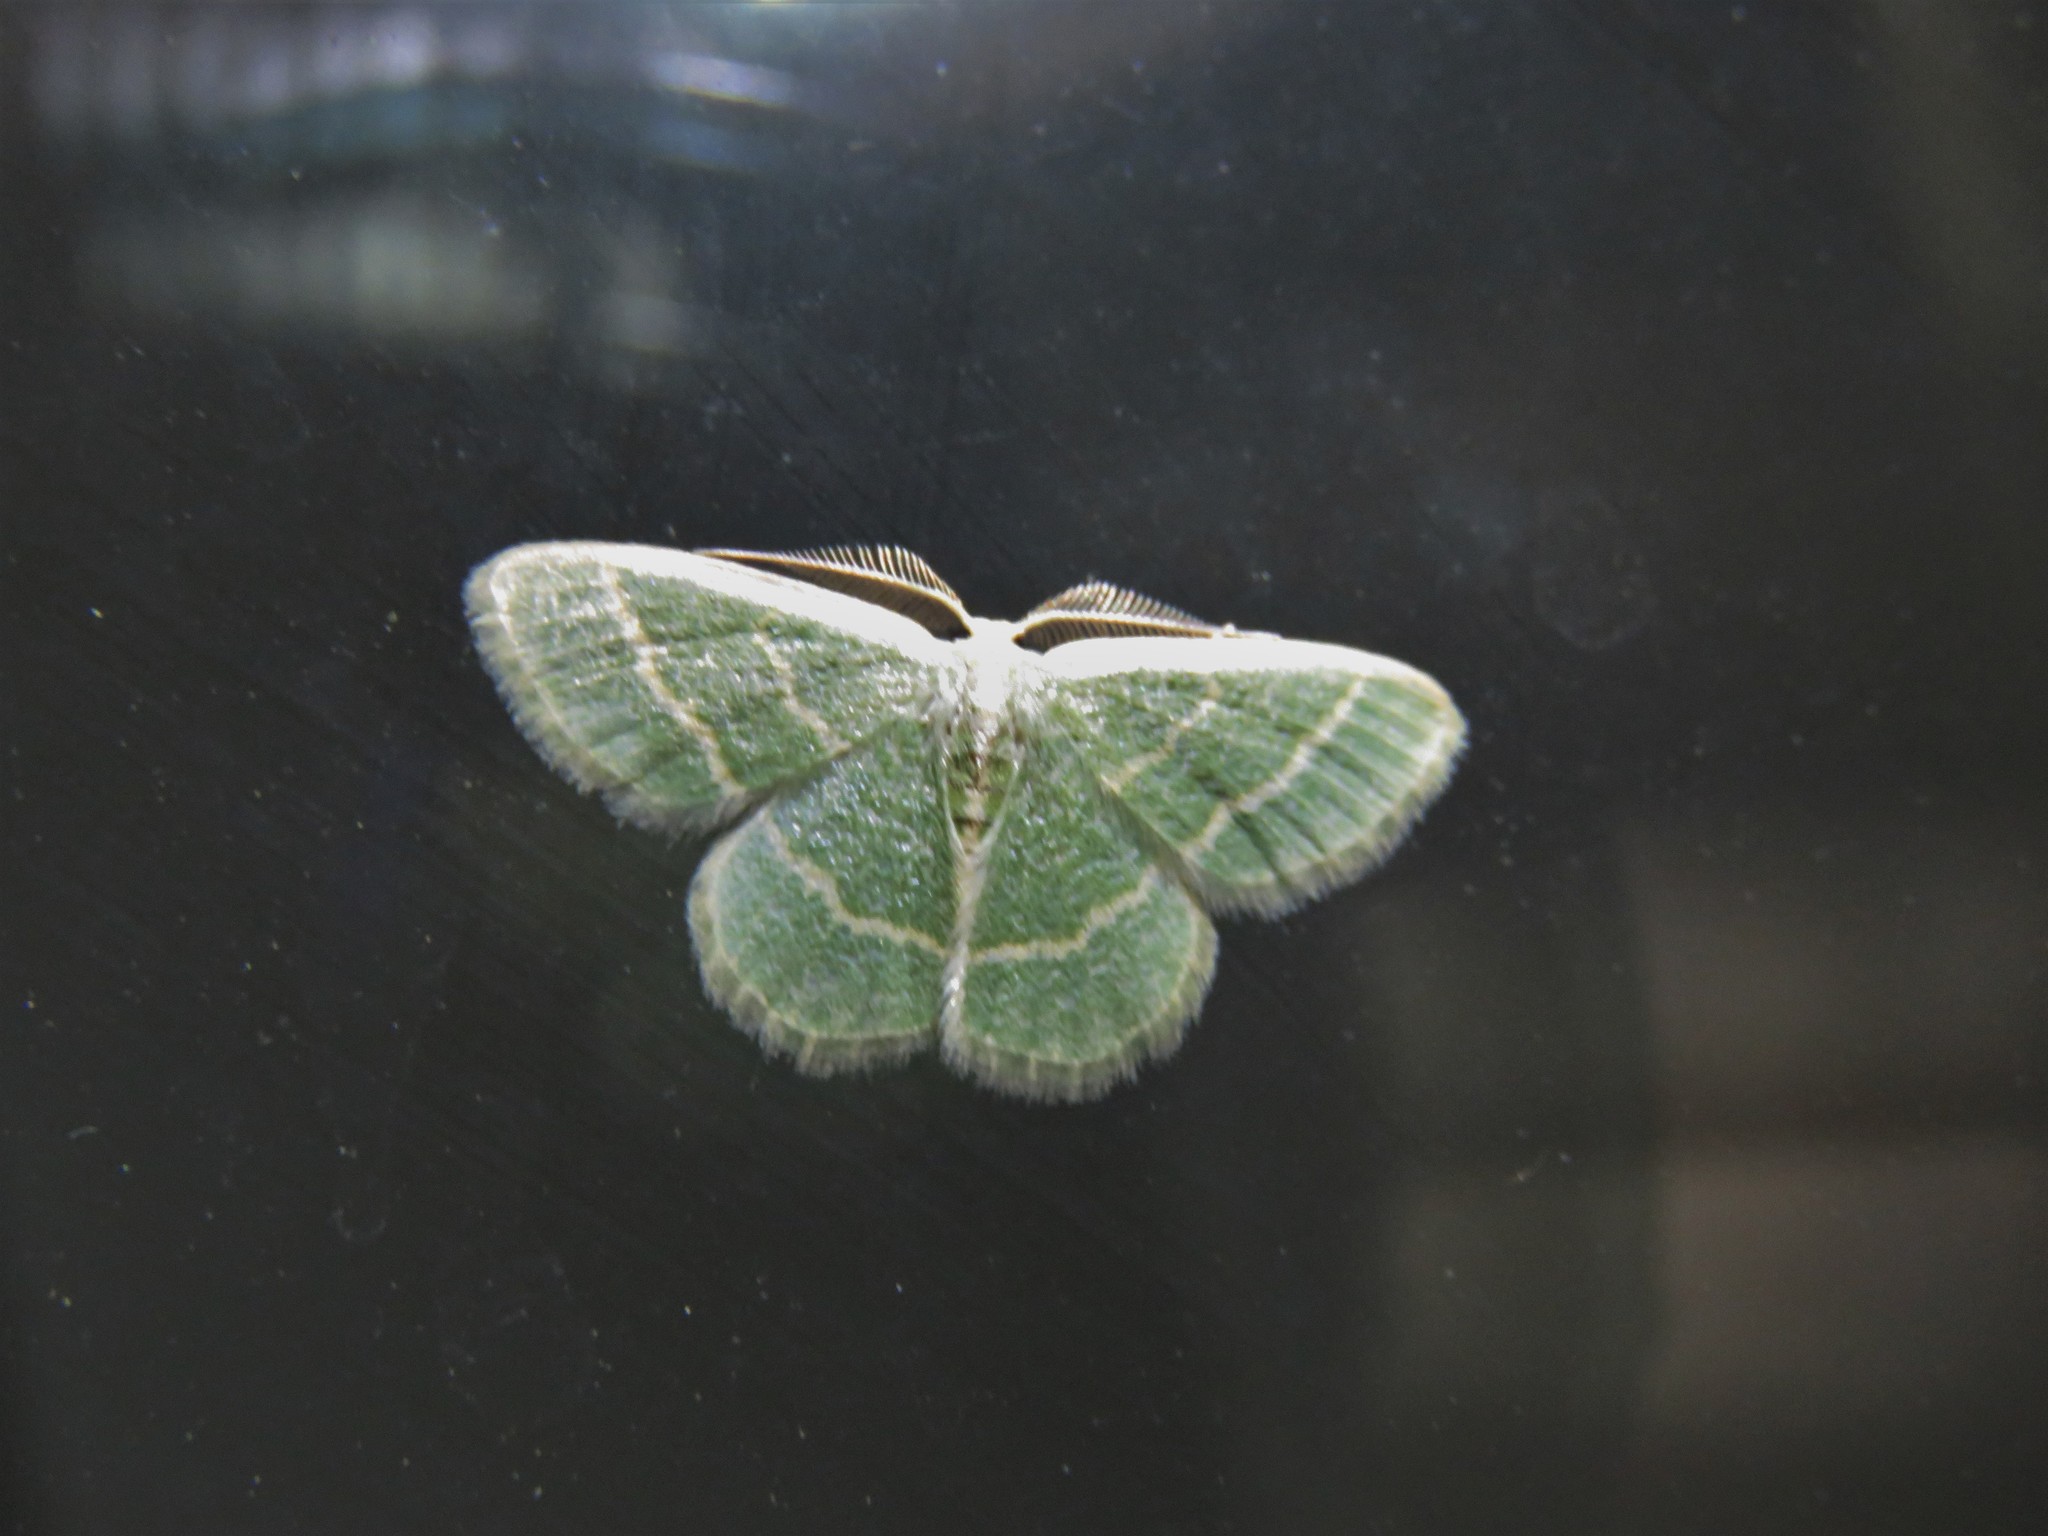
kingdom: Animalia
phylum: Arthropoda
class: Insecta
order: Lepidoptera
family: Geometridae
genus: Chlorochlamys
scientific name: Chlorochlamys chloroleucaria
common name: Blackberry looper
